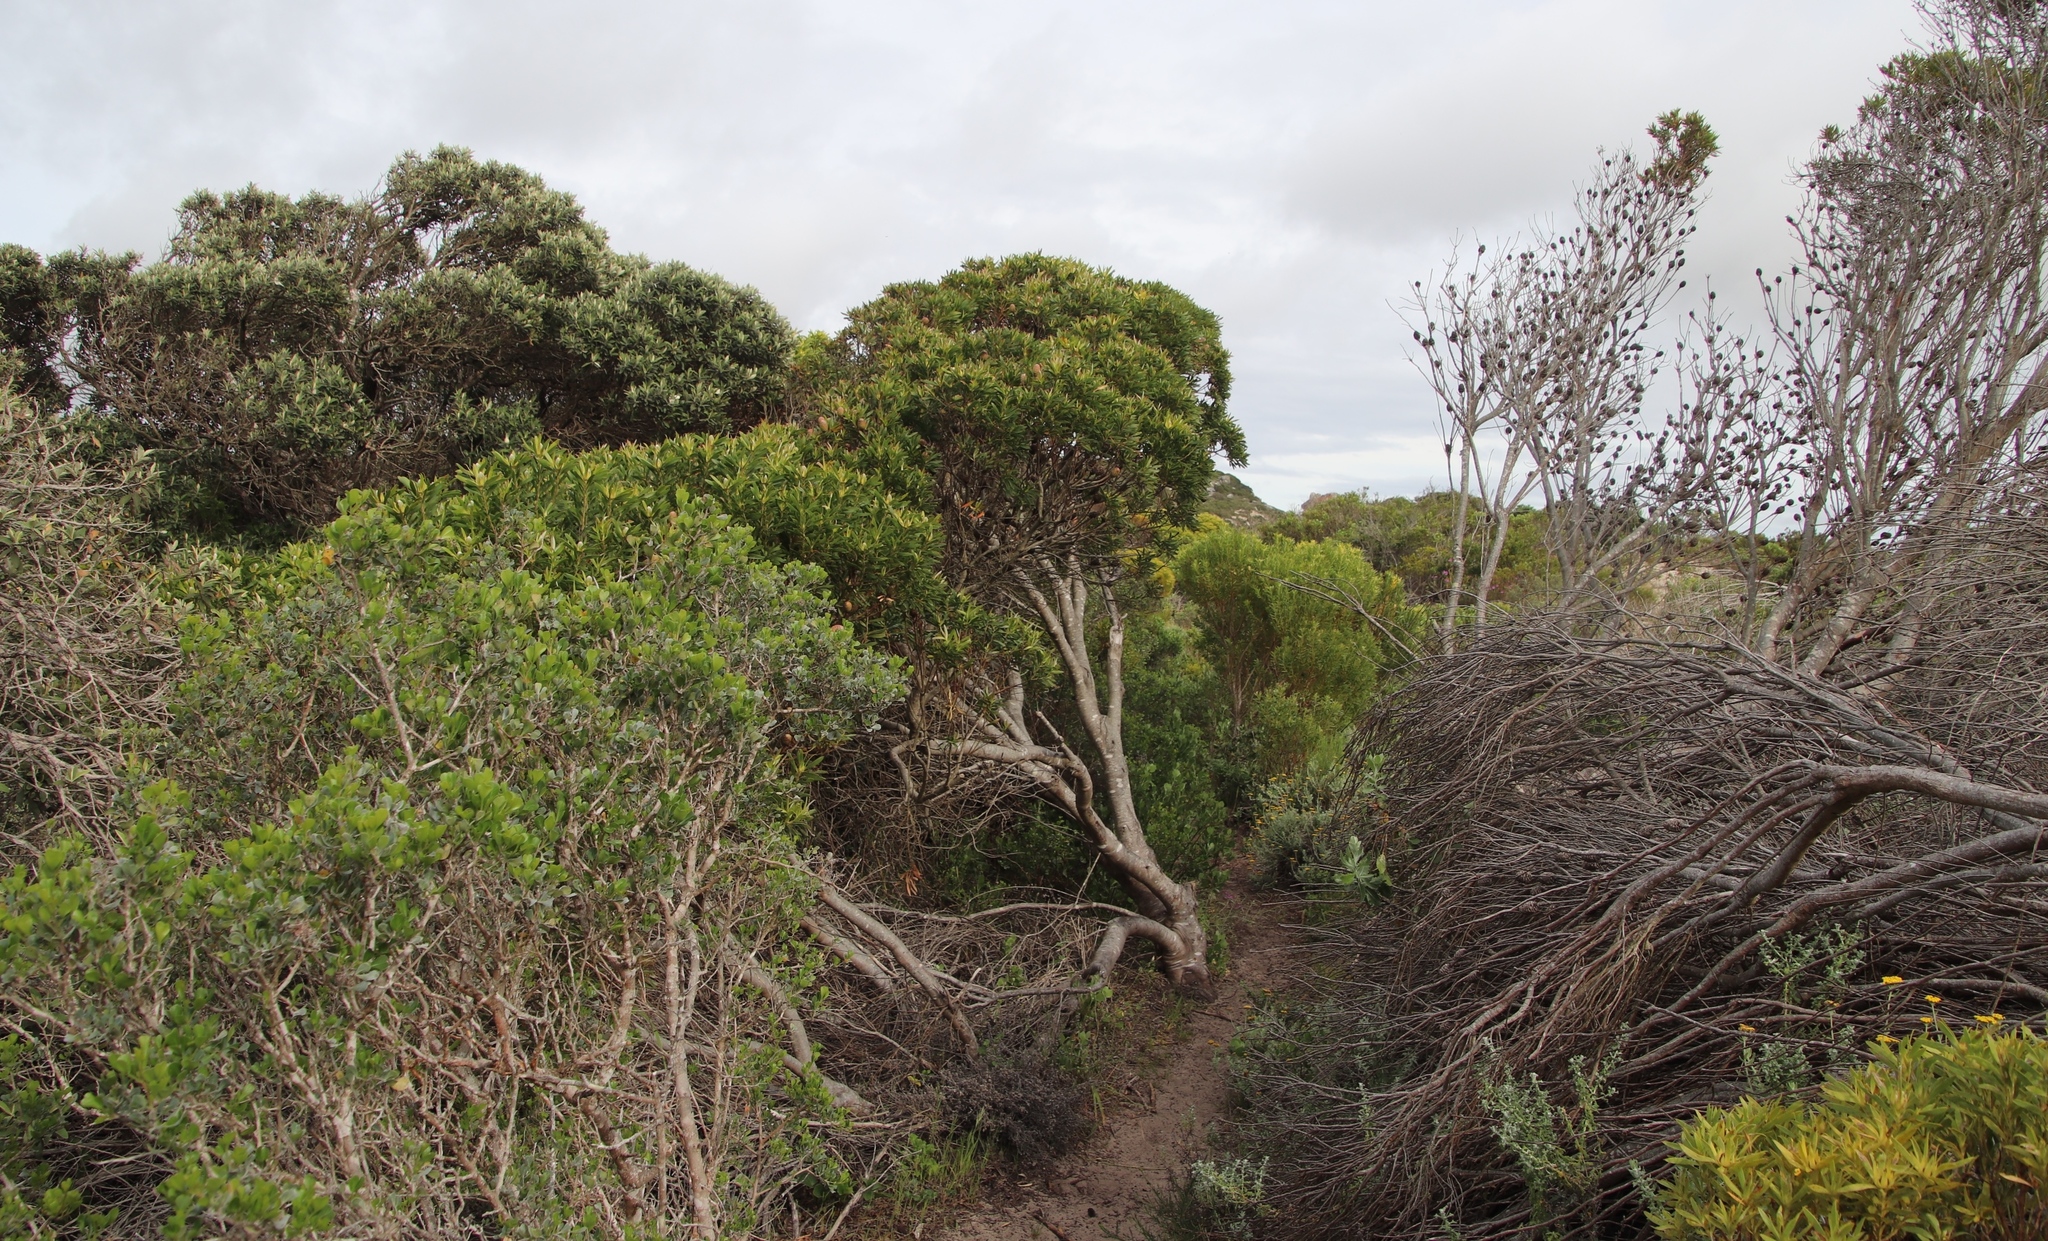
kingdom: Plantae
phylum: Tracheophyta
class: Magnoliopsida
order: Proteales
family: Proteaceae
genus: Leucadendron
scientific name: Leucadendron coniferum
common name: Dune conebush
